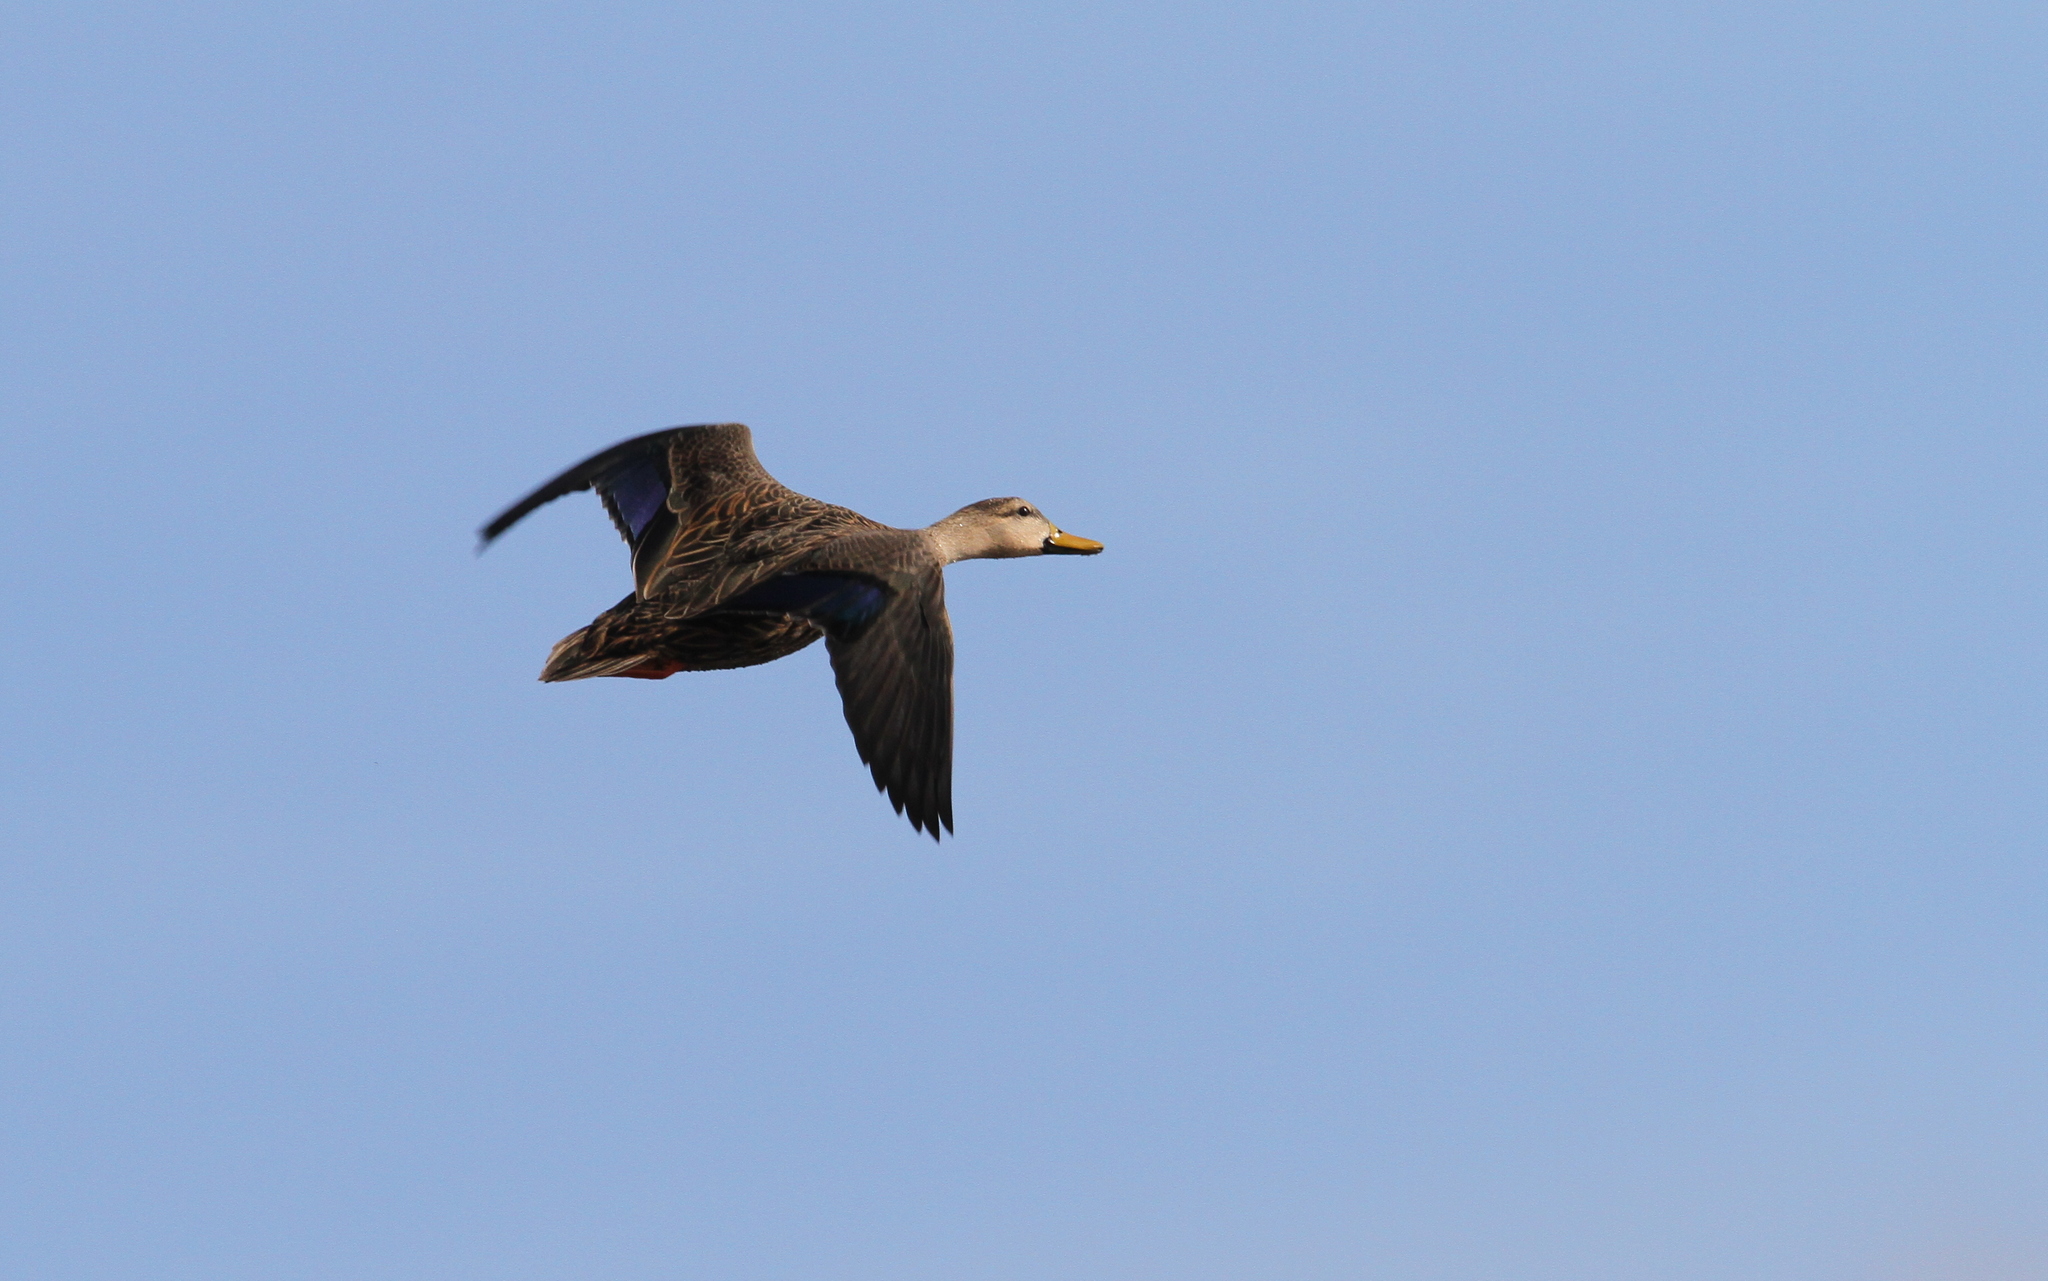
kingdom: Animalia
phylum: Chordata
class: Aves
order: Anseriformes
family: Anatidae
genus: Anas
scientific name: Anas fulvigula
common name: Mottled duck
